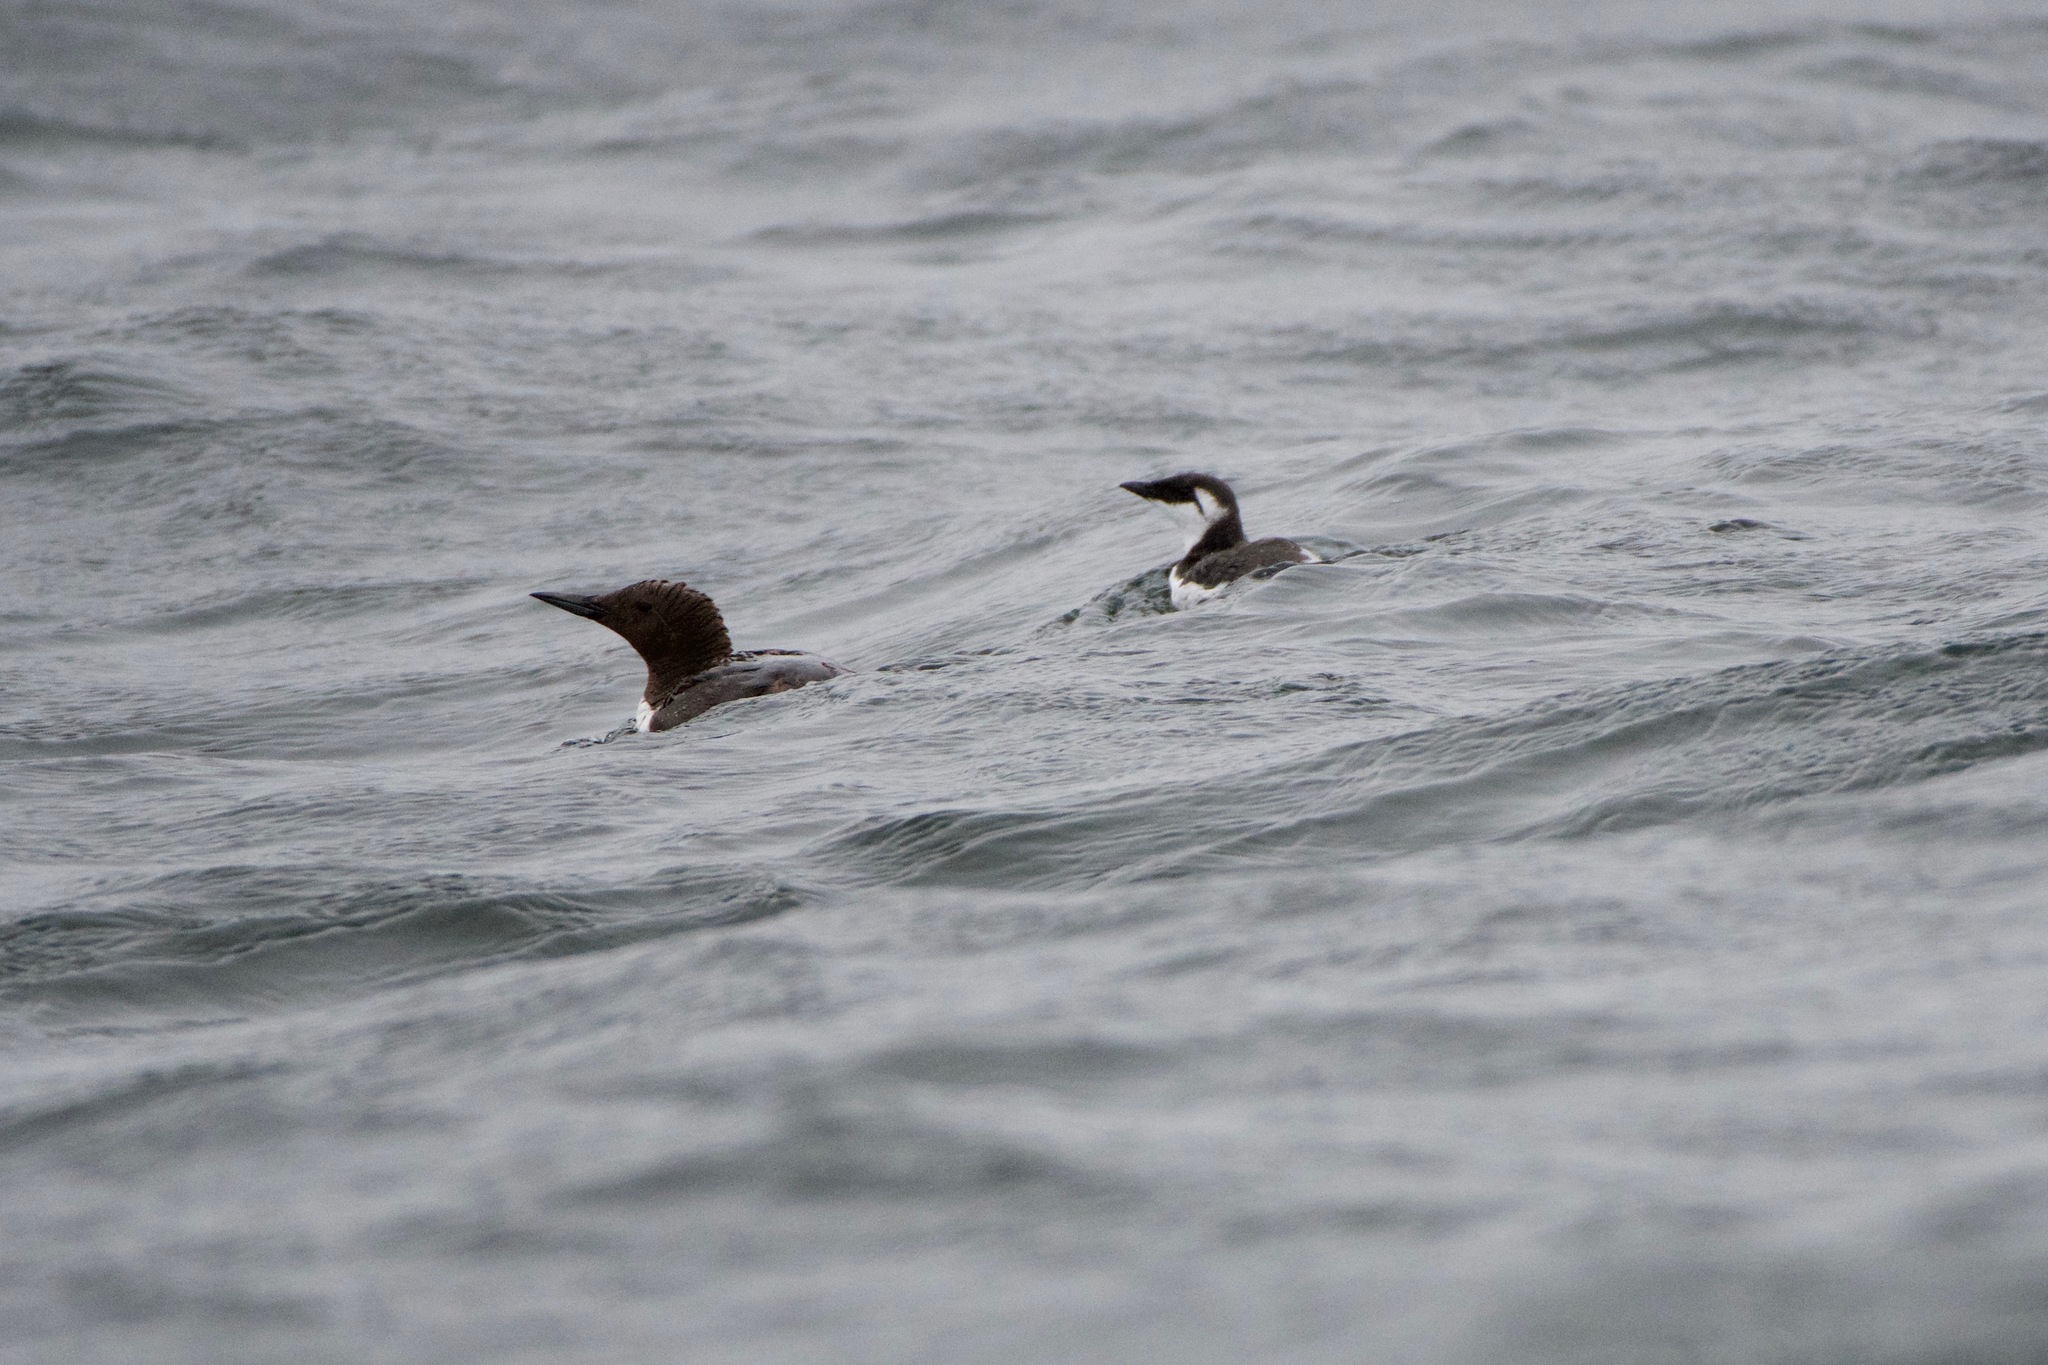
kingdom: Animalia
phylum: Chordata
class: Aves
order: Charadriiformes
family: Alcidae
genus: Uria
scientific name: Uria aalge
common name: Common murre
